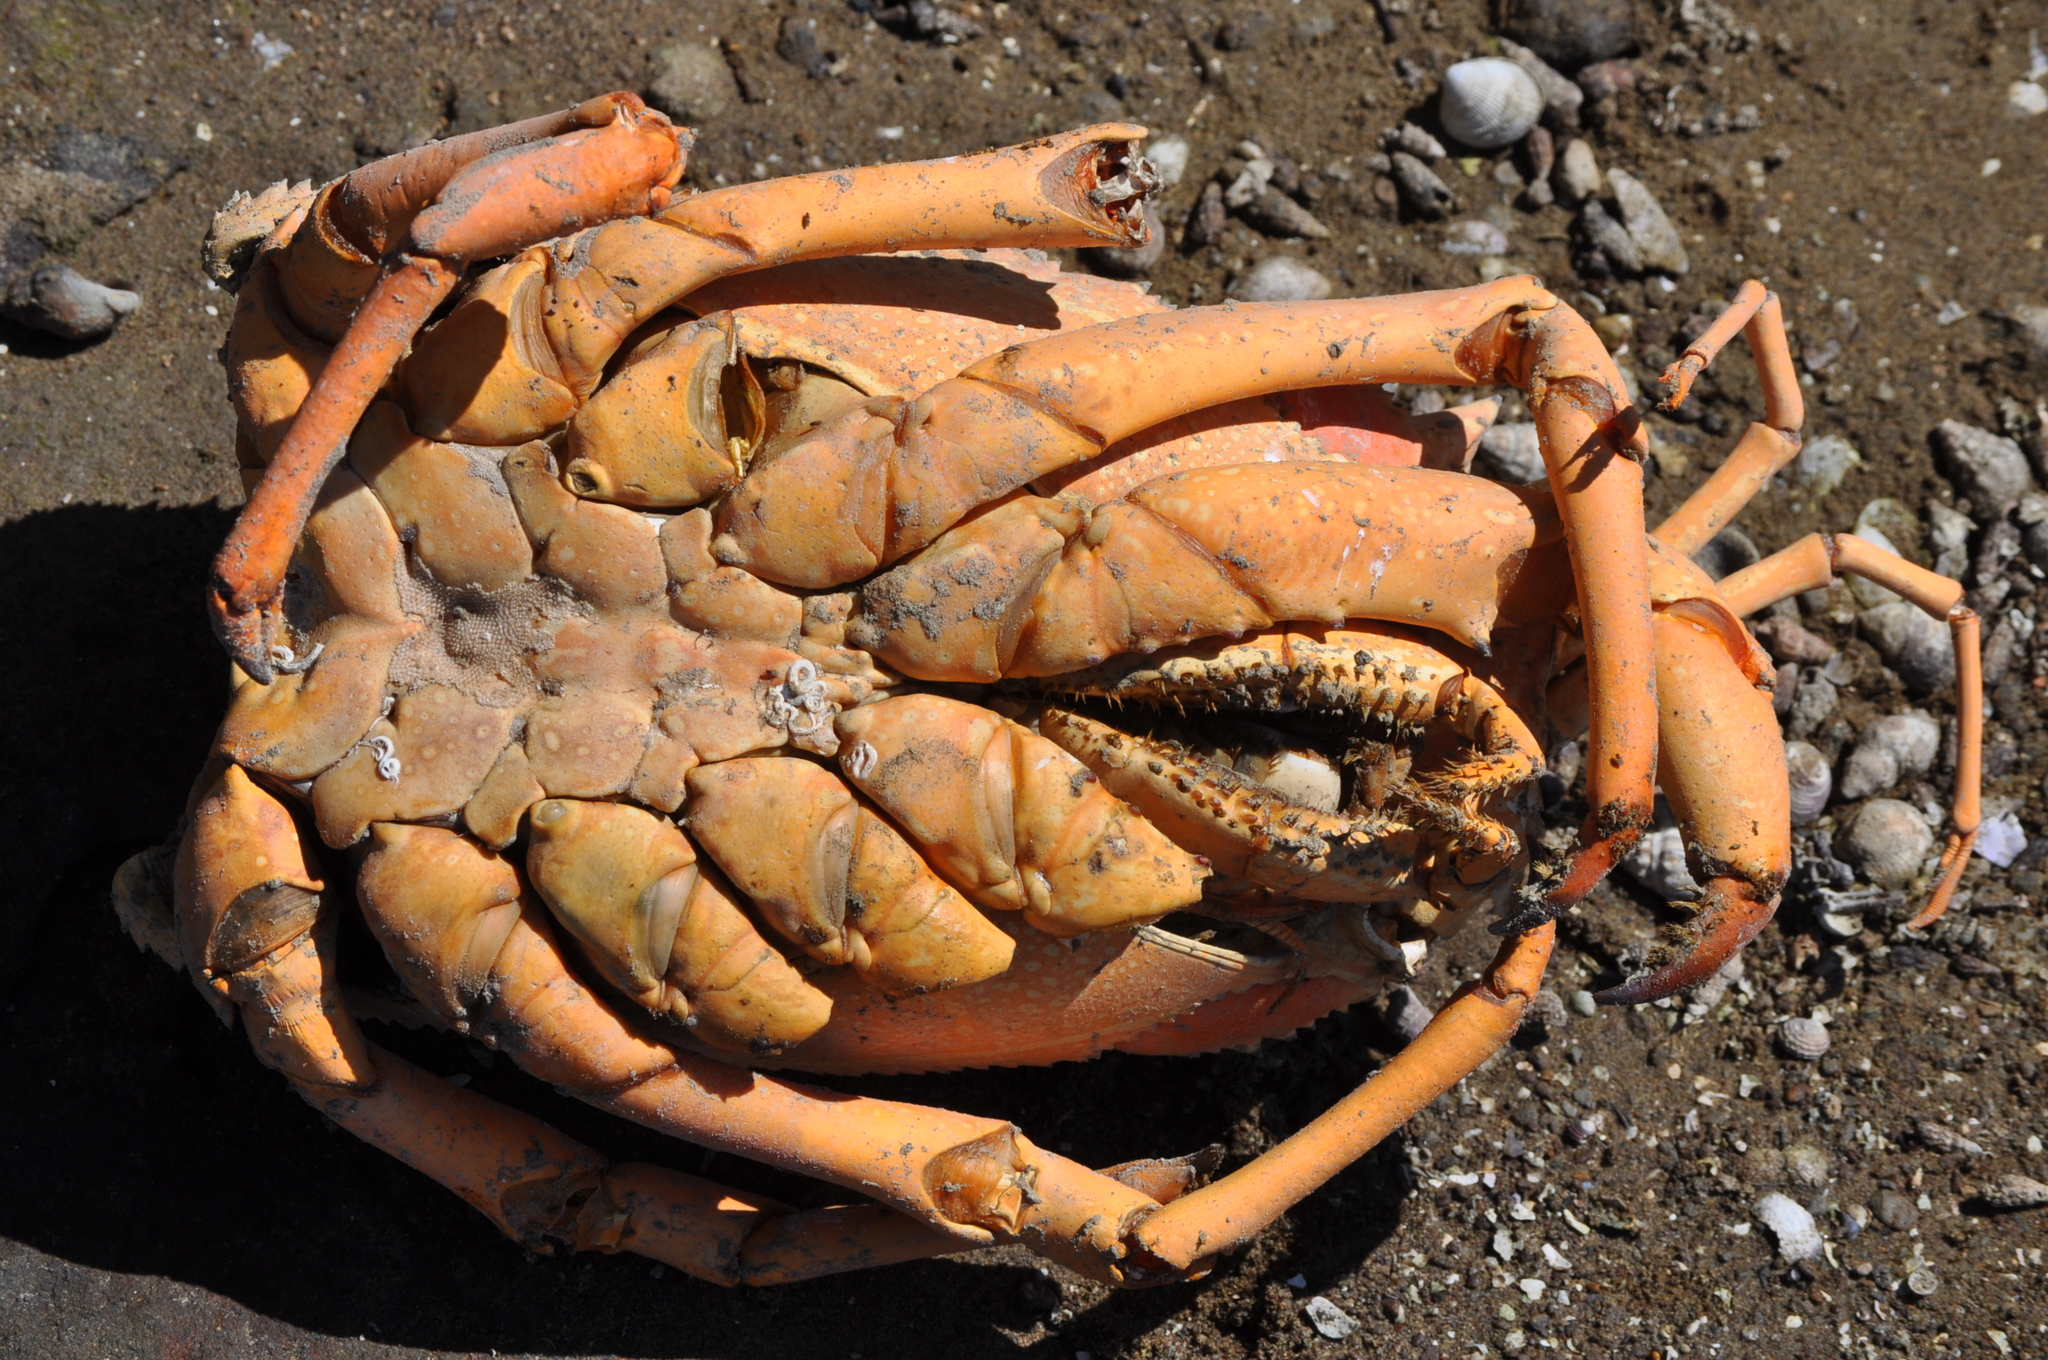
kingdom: Animalia
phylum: Arthropoda
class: Malacostraca
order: Decapoda
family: Palinuridae
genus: Sagmariasus
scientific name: Sagmariasus verreauxi
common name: Green rock lobster
